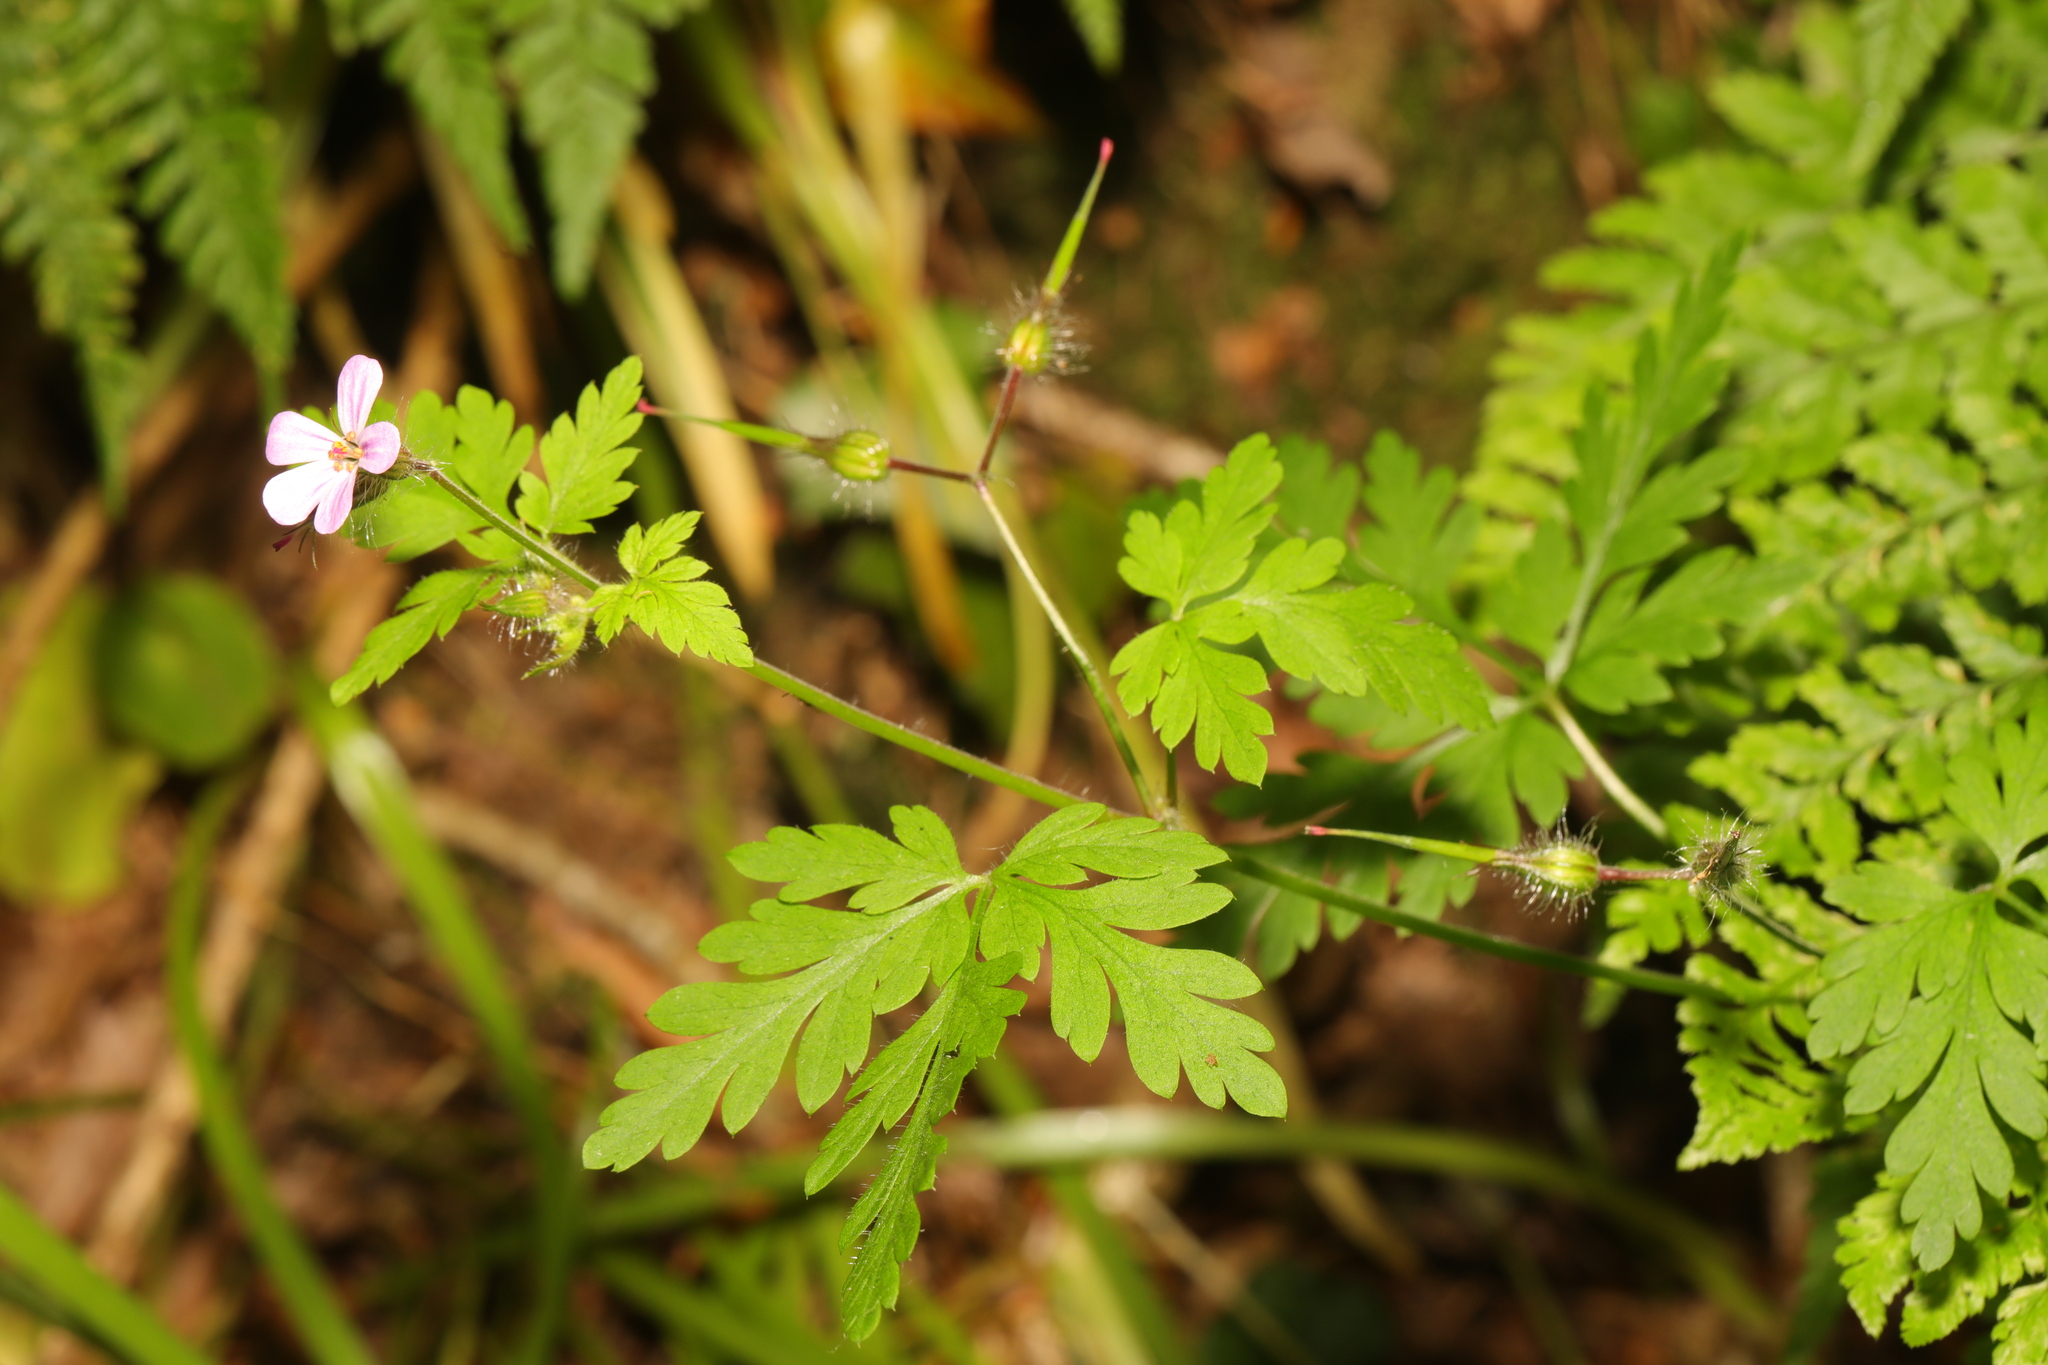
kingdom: Plantae
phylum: Tracheophyta
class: Magnoliopsida
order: Geraniales
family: Geraniaceae
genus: Geranium
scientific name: Geranium robertianum
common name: Herb-robert
